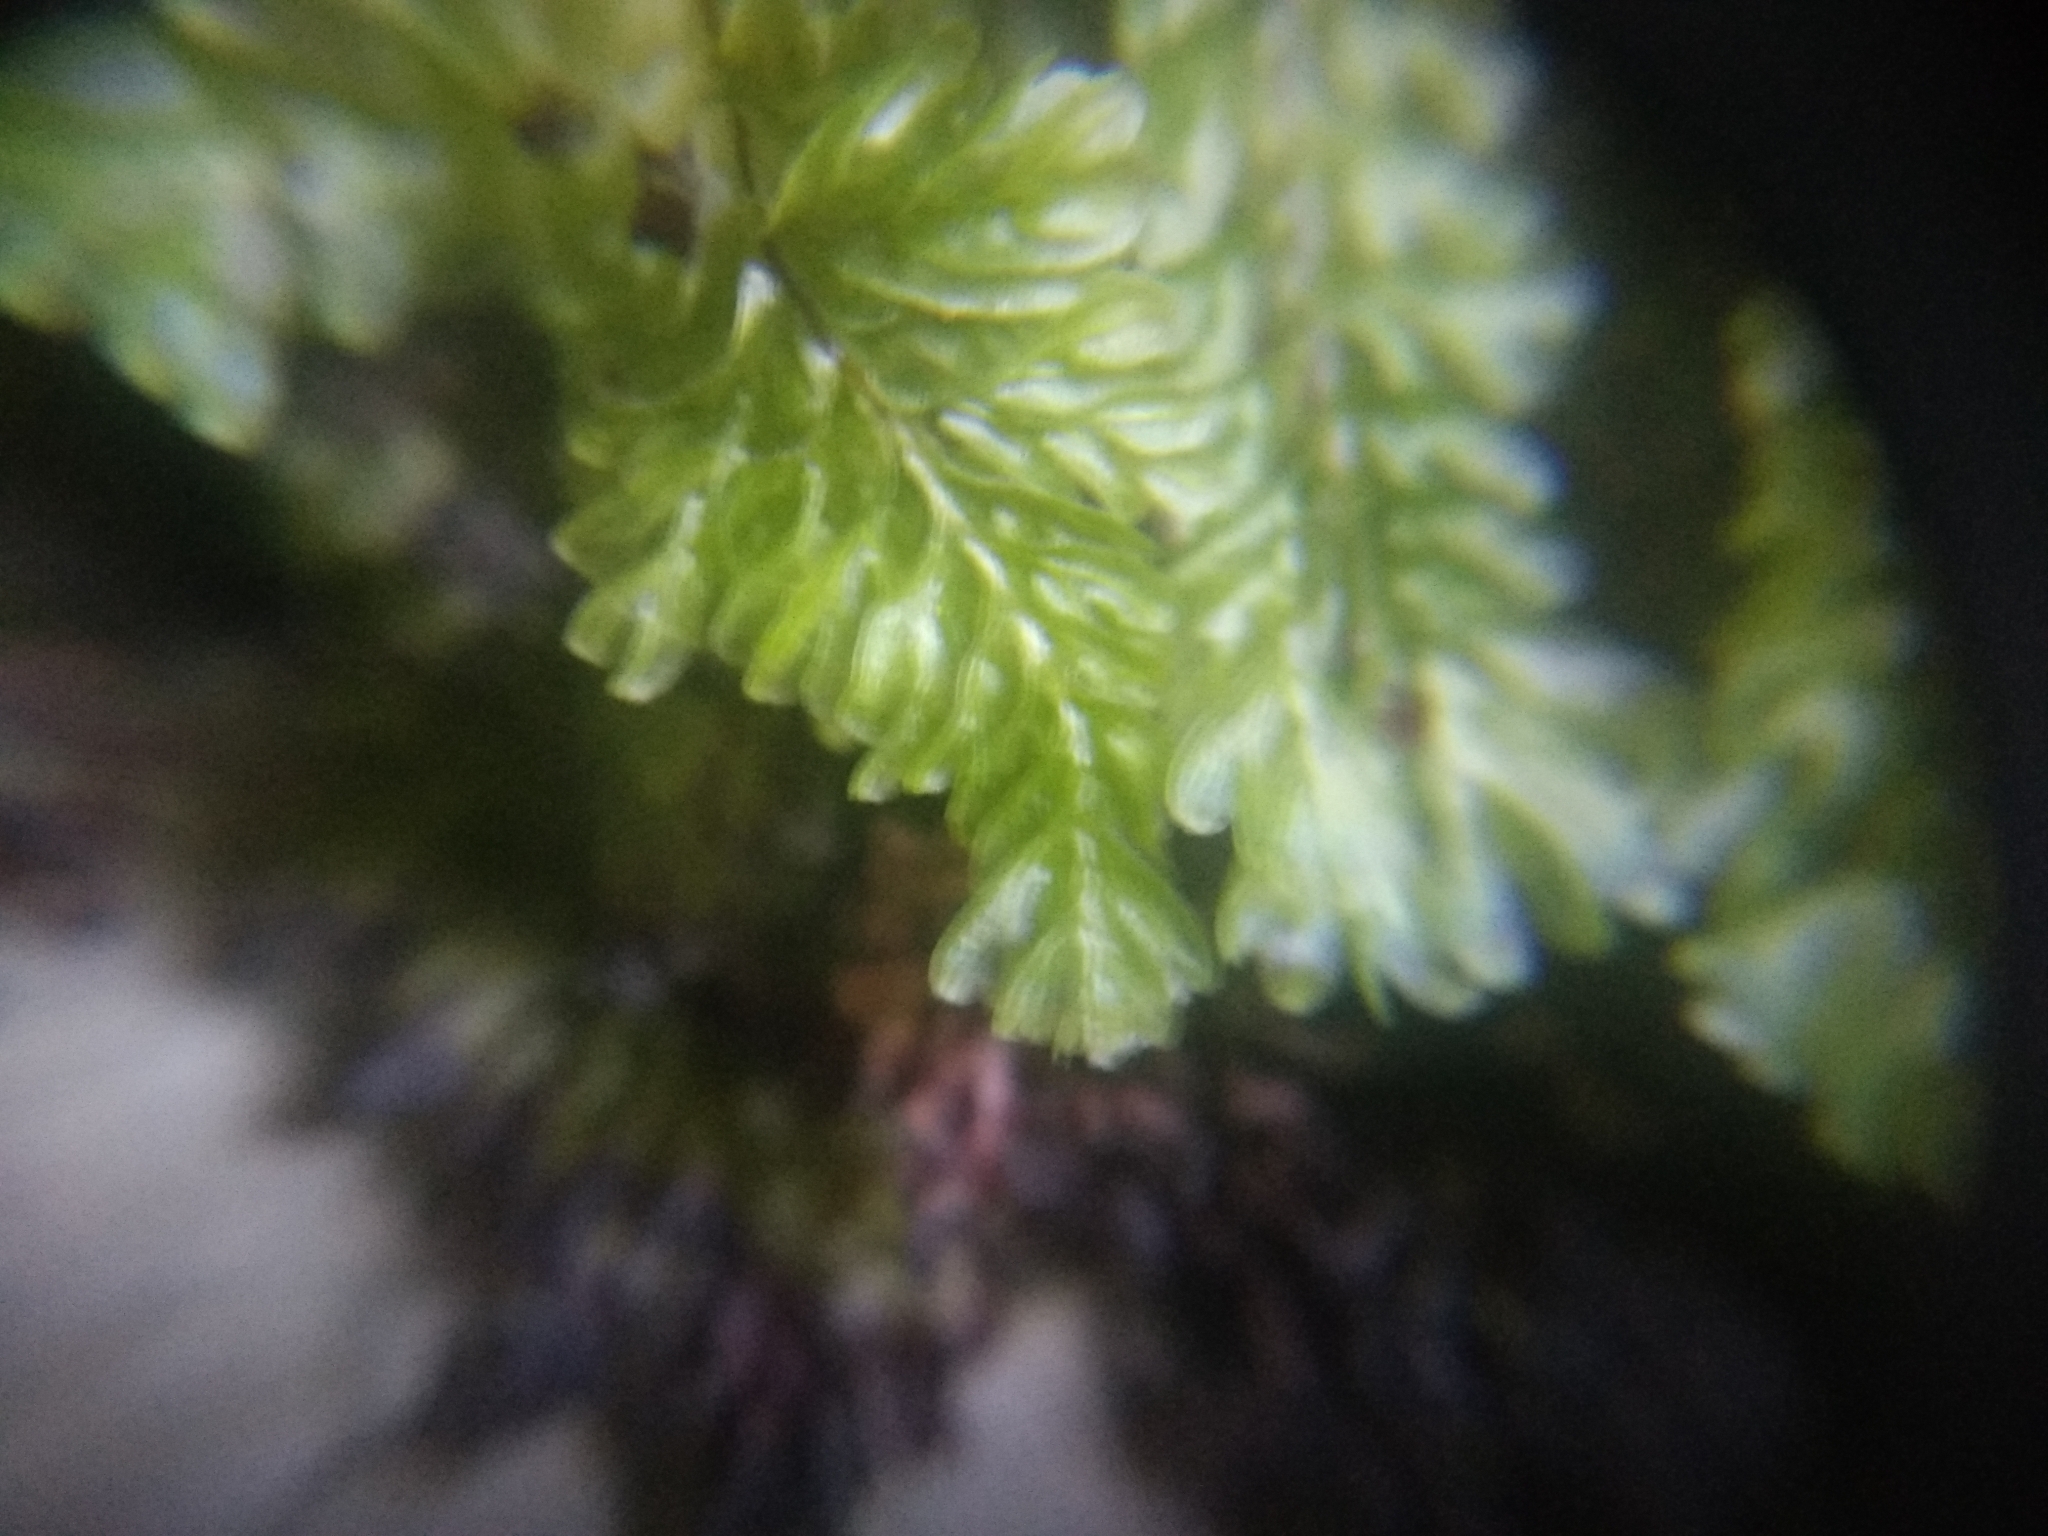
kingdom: Plantae
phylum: Tracheophyta
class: Polypodiopsida
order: Hymenophyllales
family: Hymenophyllaceae
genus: Hymenophyllum
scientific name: Hymenophyllum capense
